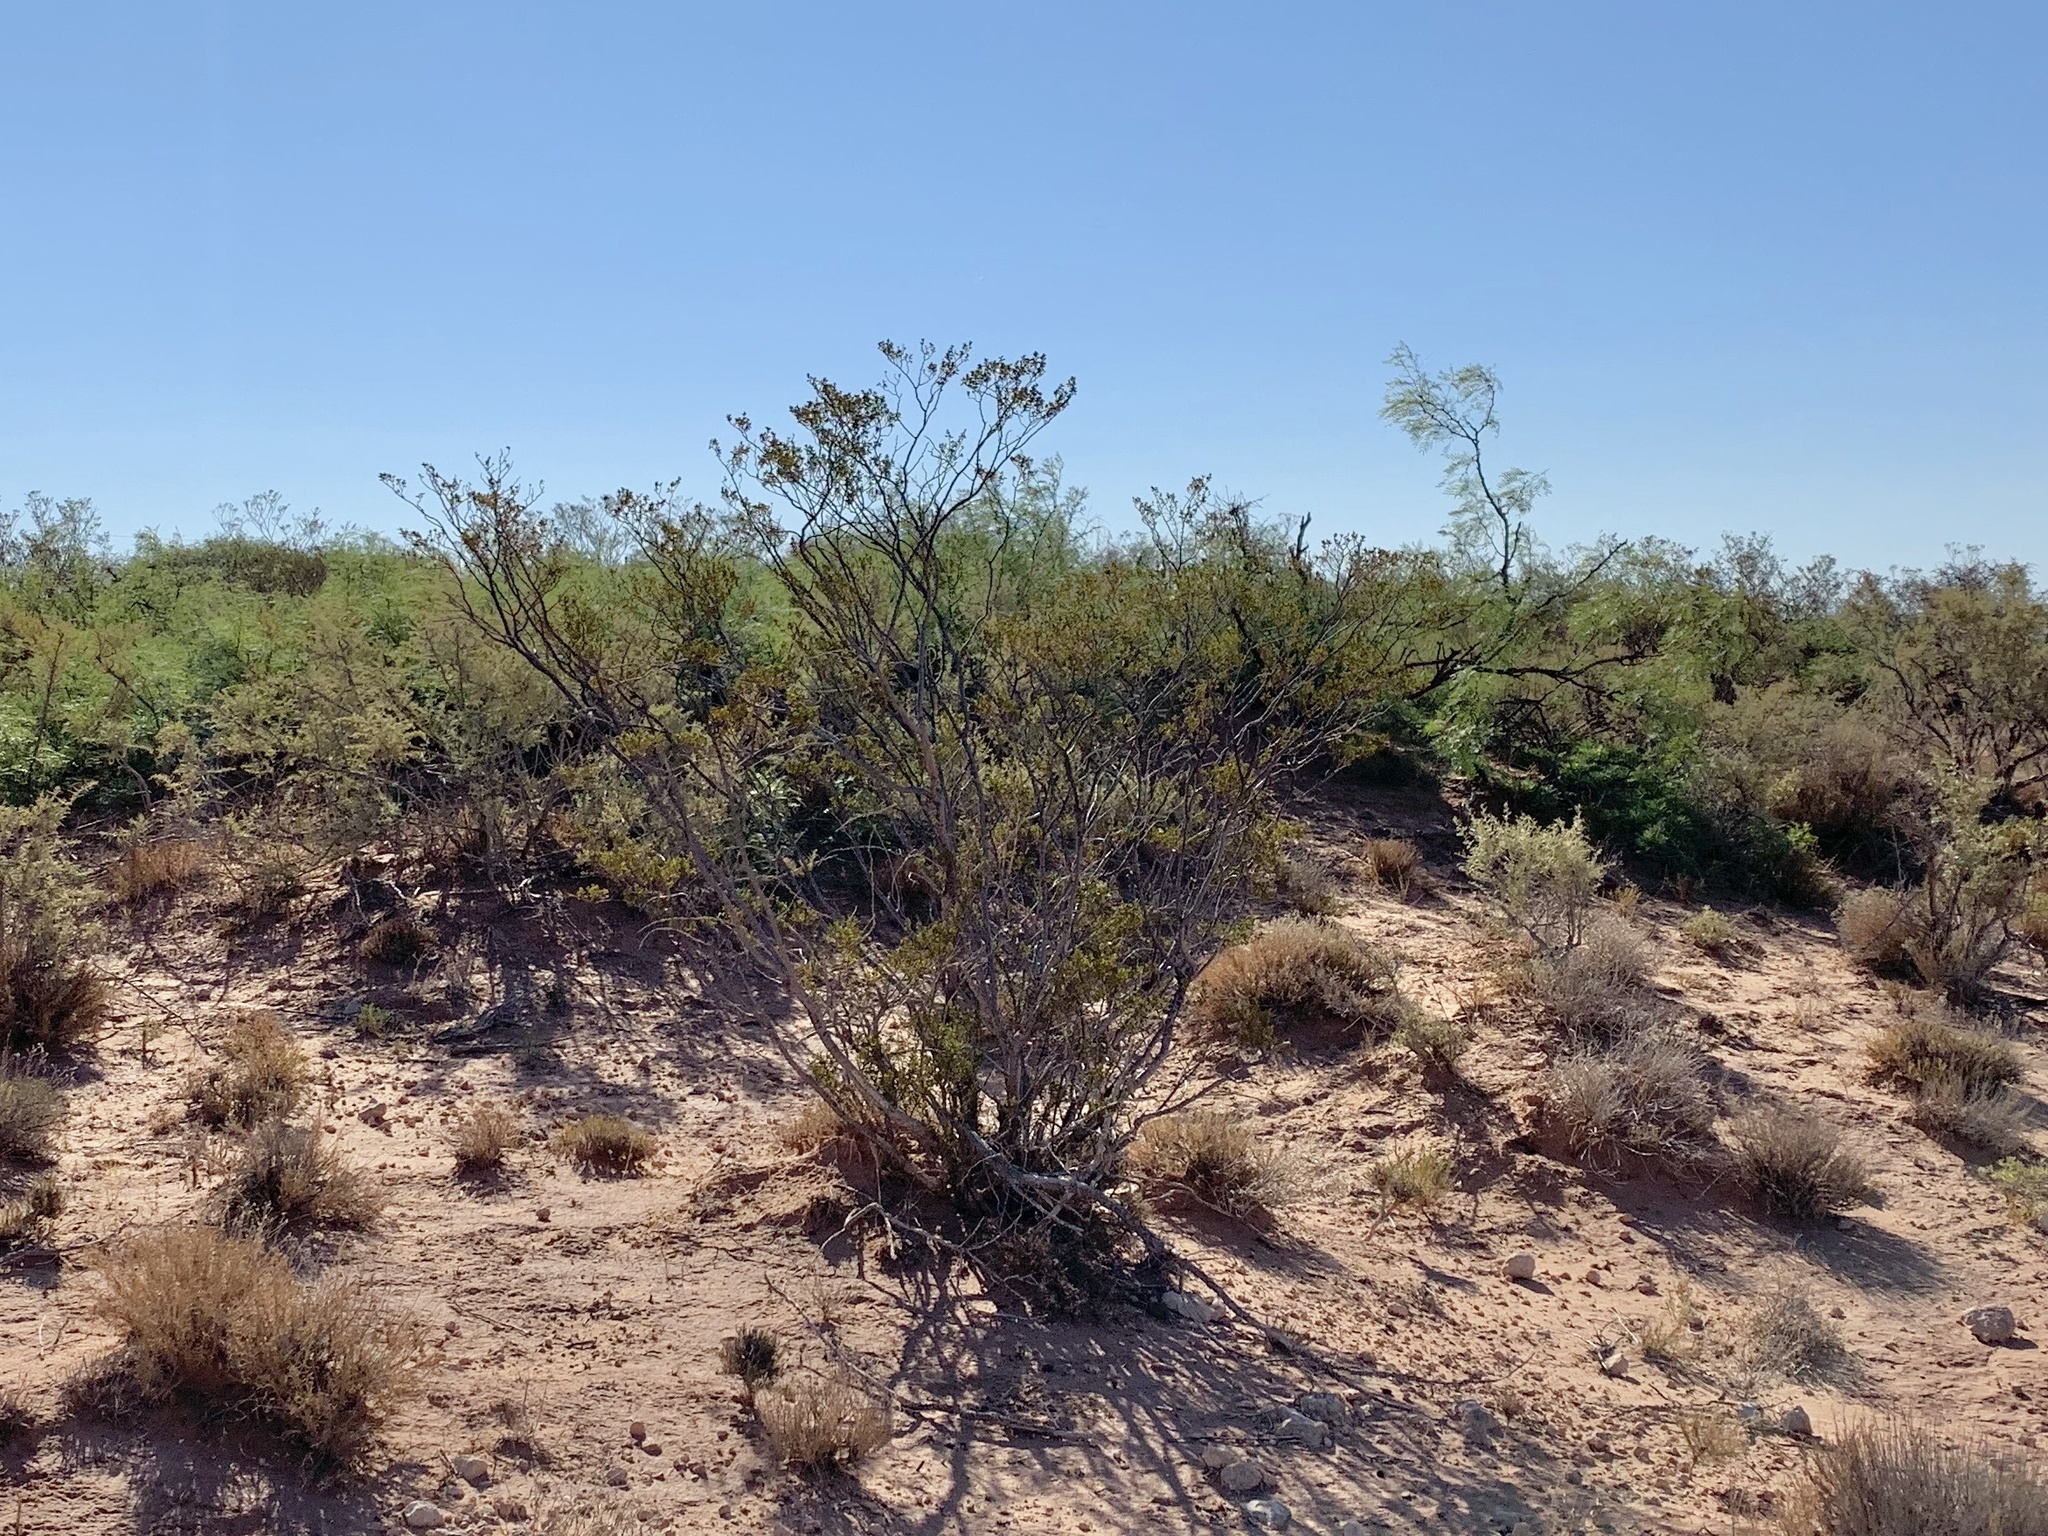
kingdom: Plantae
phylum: Tracheophyta
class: Magnoliopsida
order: Zygophyllales
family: Zygophyllaceae
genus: Larrea
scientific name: Larrea tridentata
